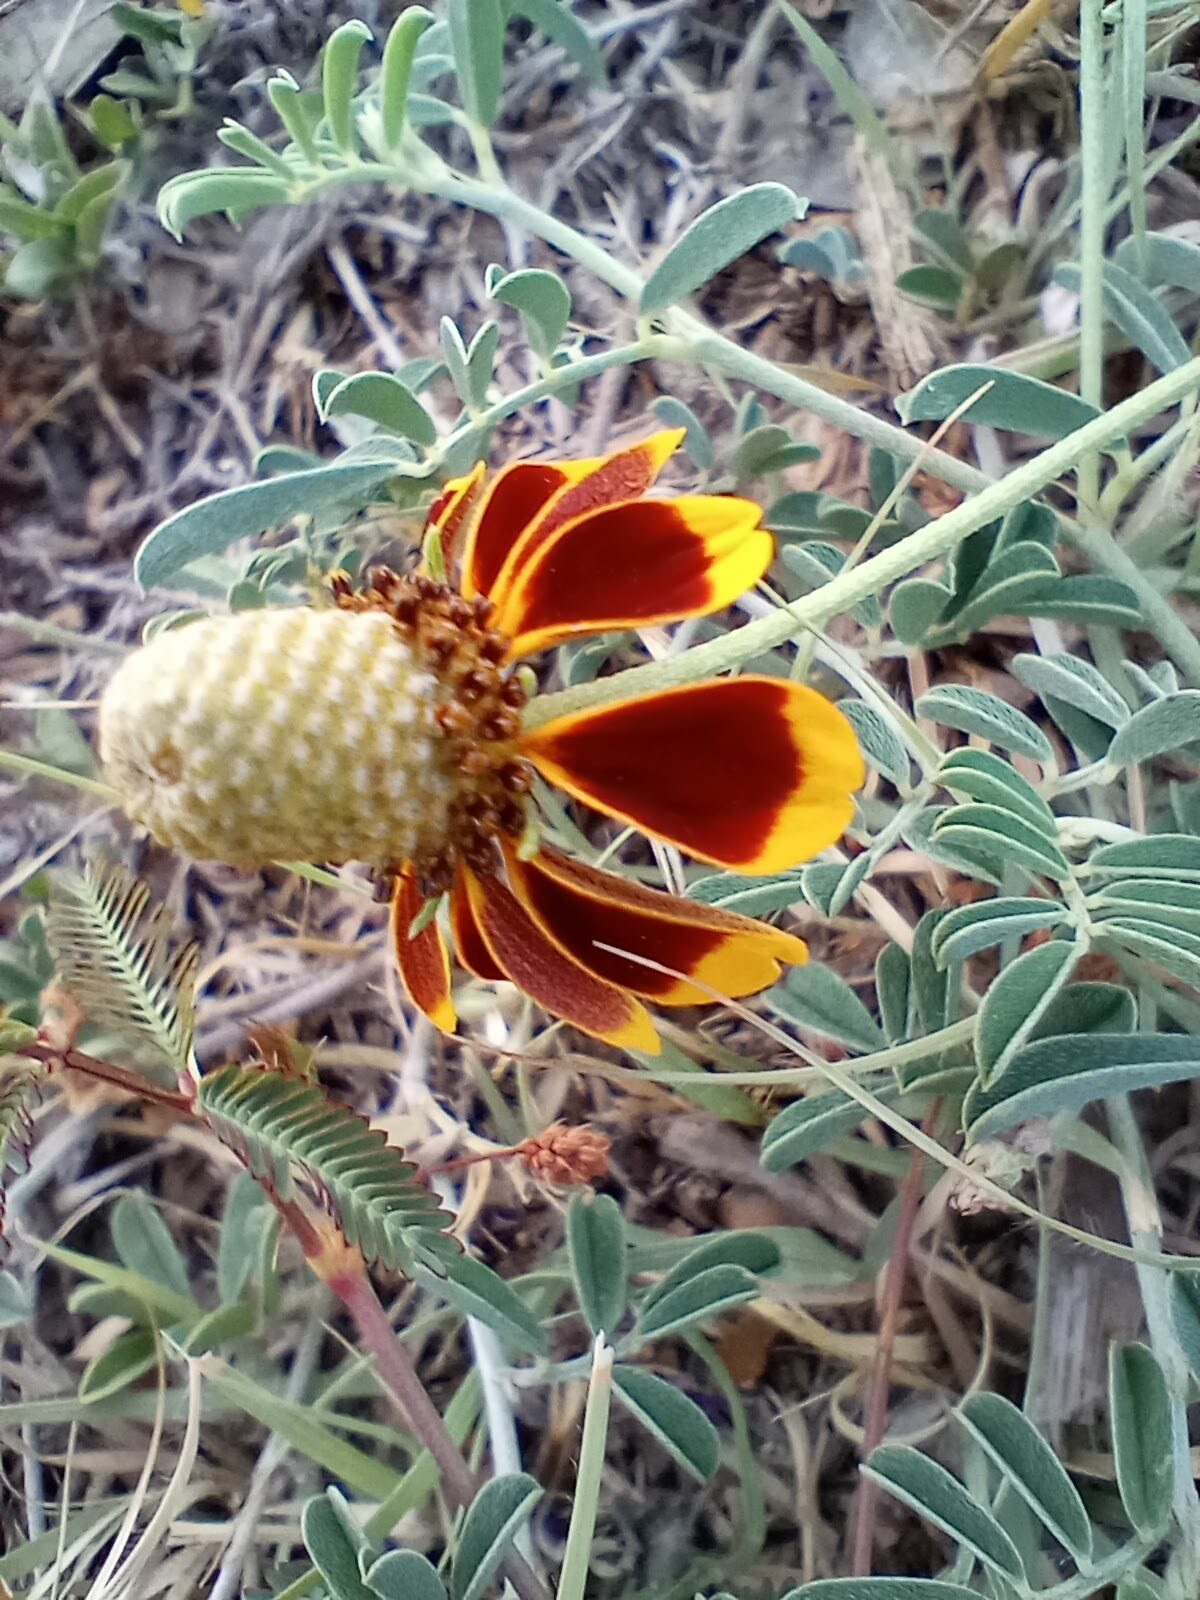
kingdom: Plantae
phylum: Tracheophyta
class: Magnoliopsida
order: Asterales
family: Asteraceae
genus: Ratibida
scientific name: Ratibida columnifera
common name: Prairie coneflower
